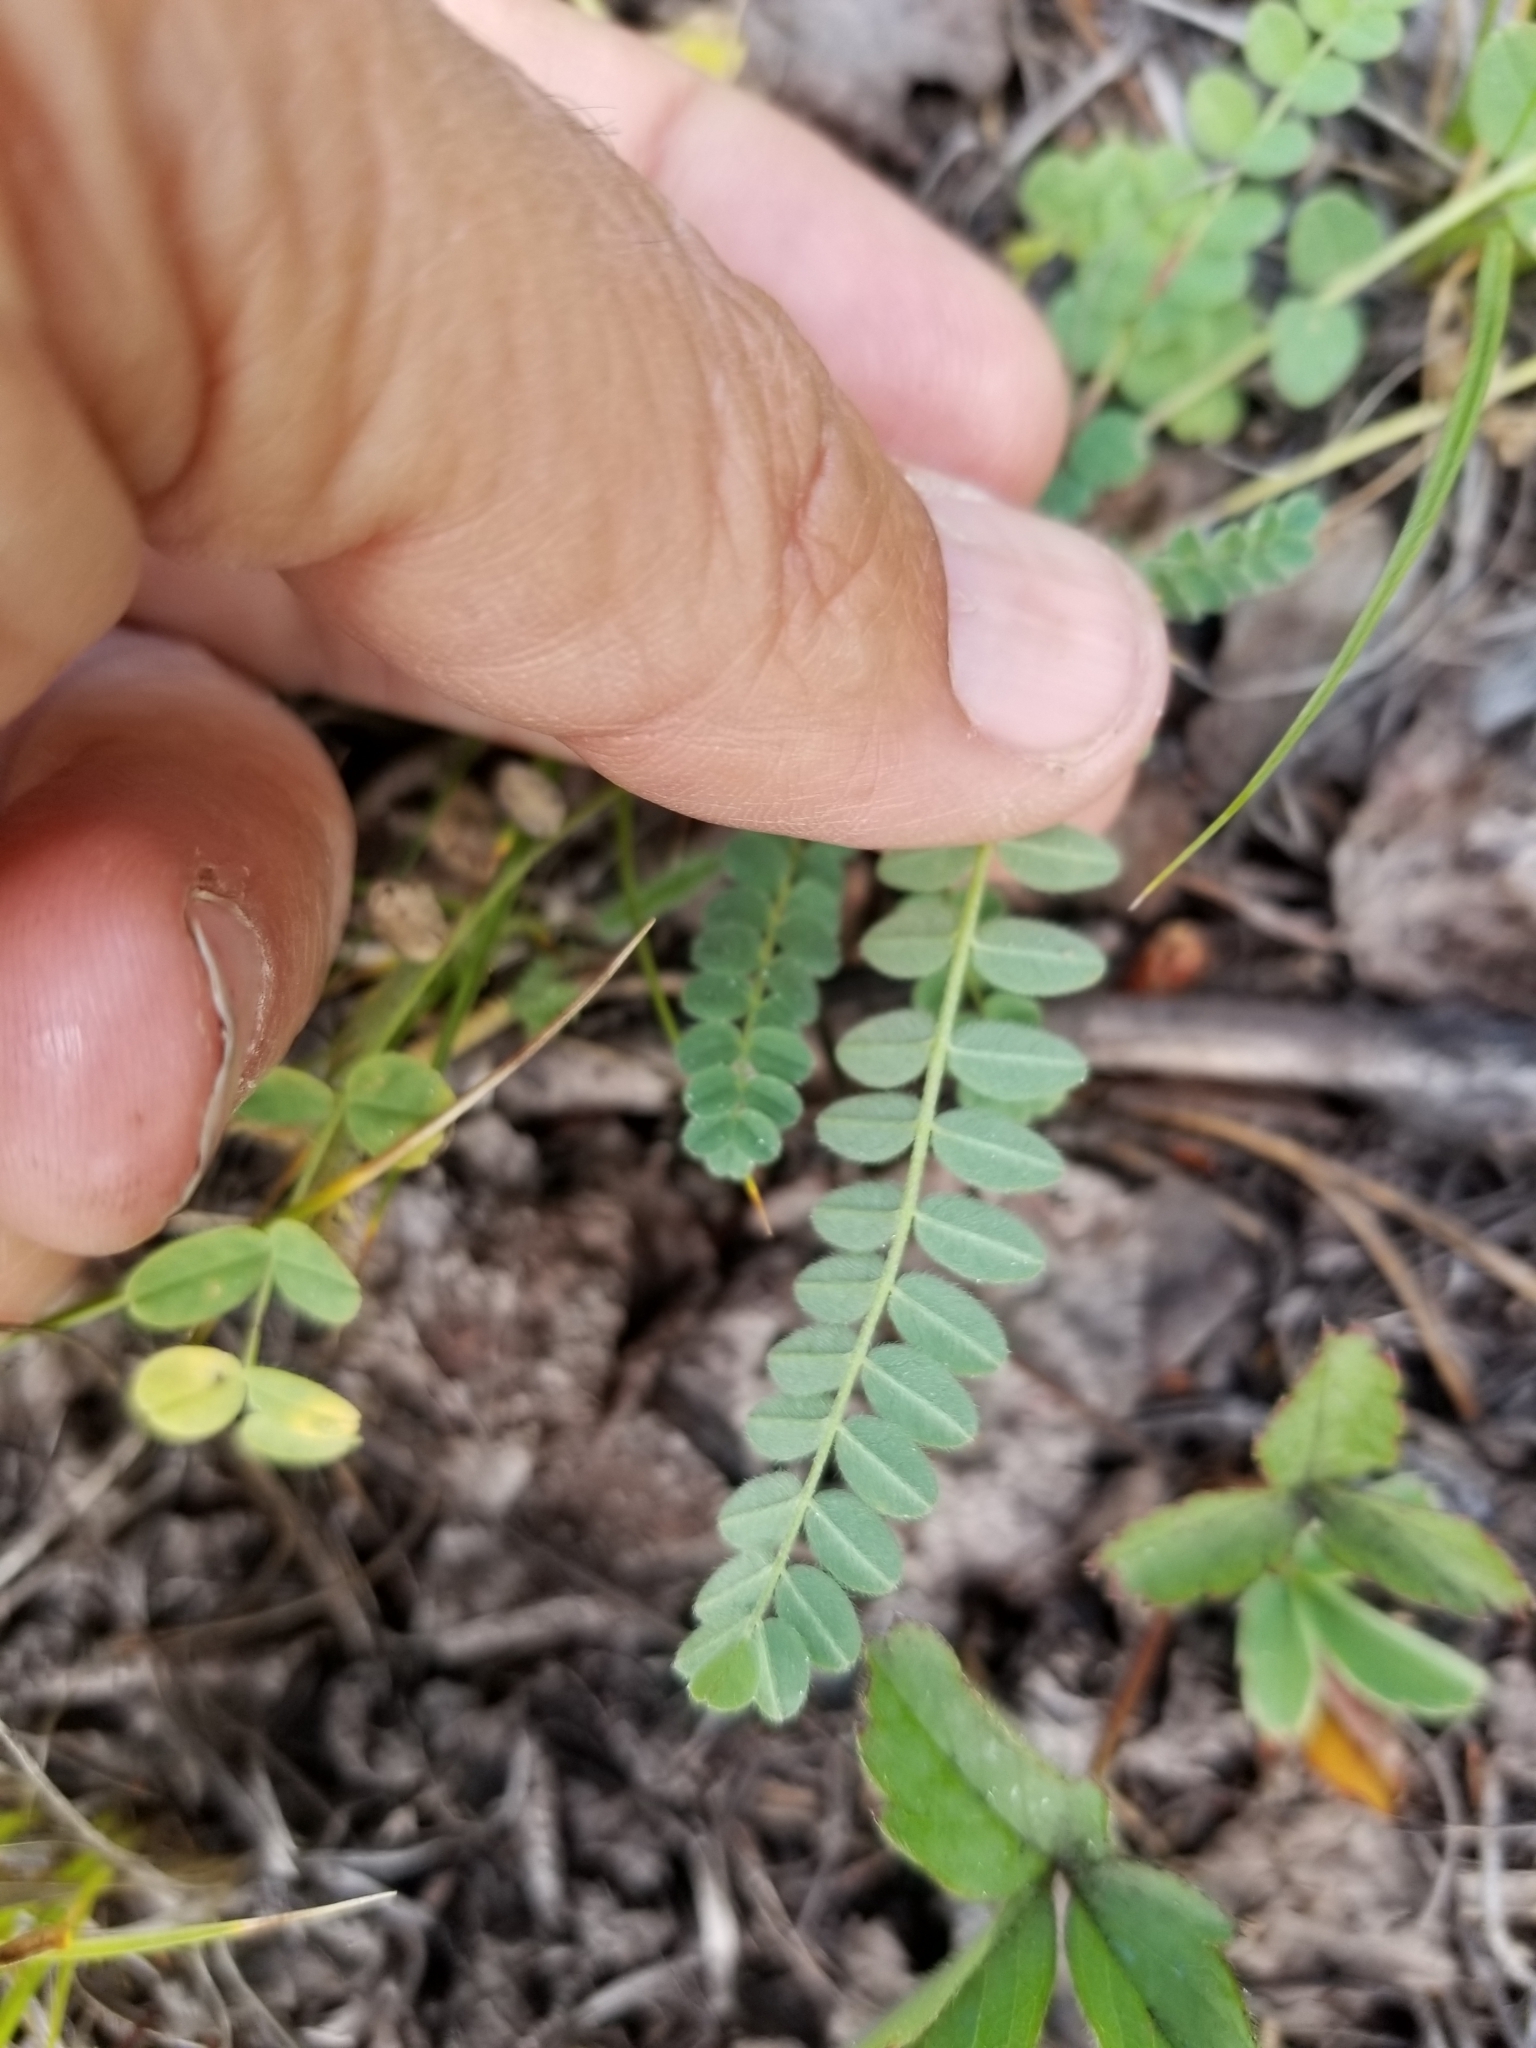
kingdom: Plantae
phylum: Tracheophyta
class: Magnoliopsida
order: Fabales
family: Fabaceae
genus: Coronilla
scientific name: Coronilla varia
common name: Crownvetch
